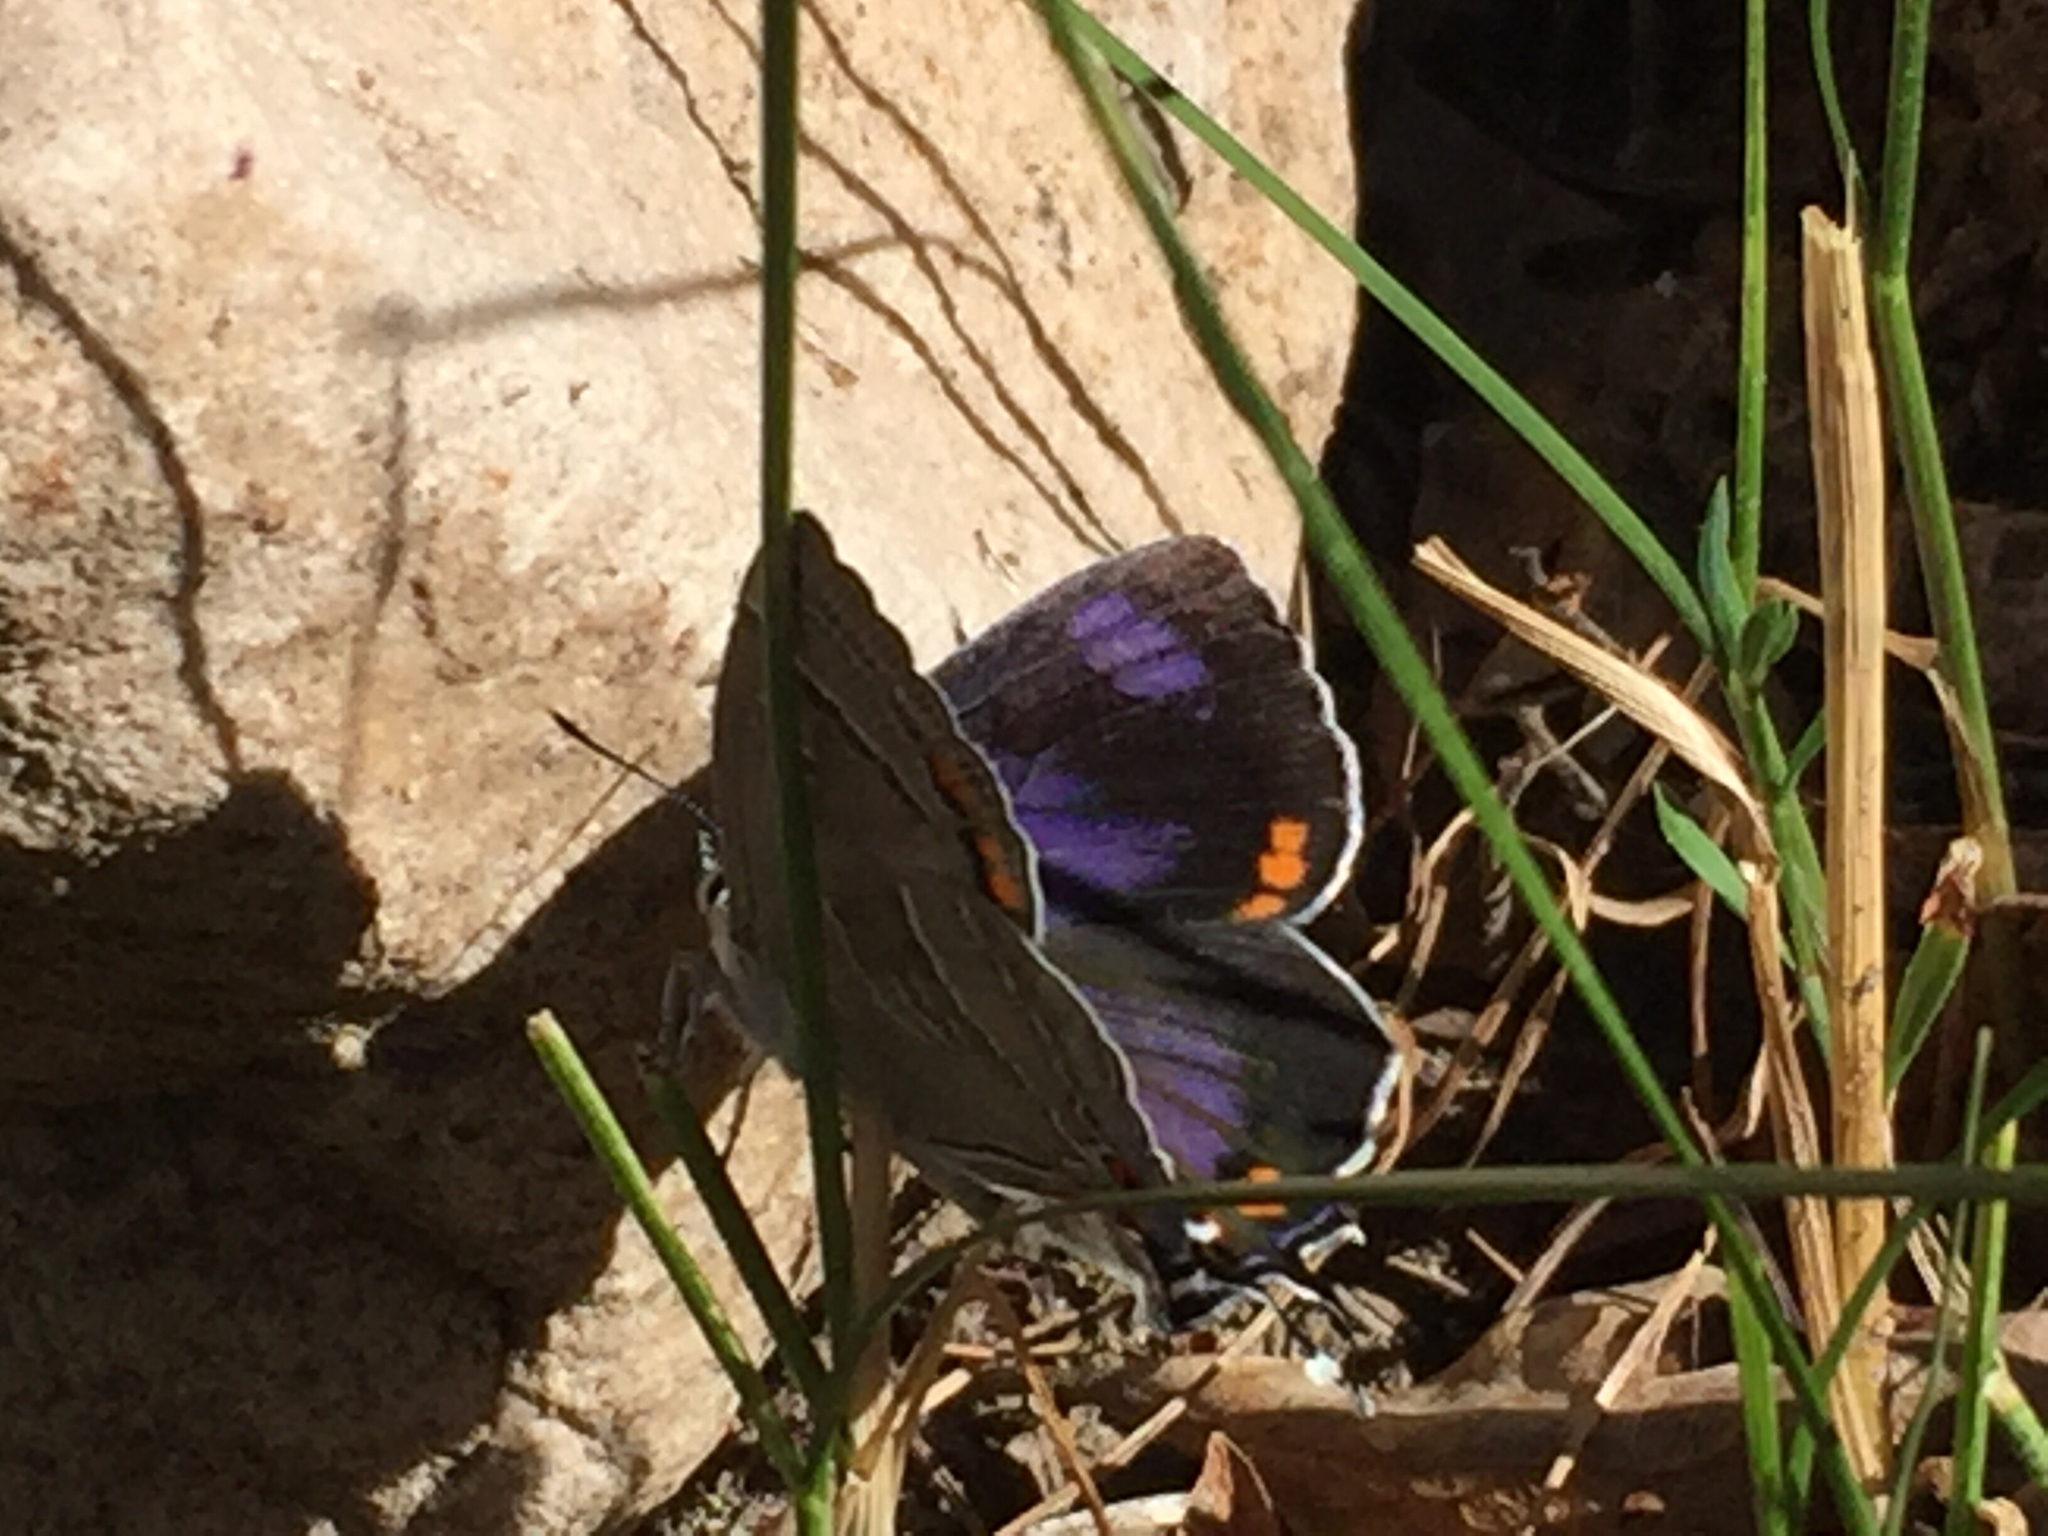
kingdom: Animalia
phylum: Arthropoda
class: Insecta
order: Lepidoptera
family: Lycaenidae
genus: Hypaurotis
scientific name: Hypaurotis crysalus
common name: Colorado hairstreak
